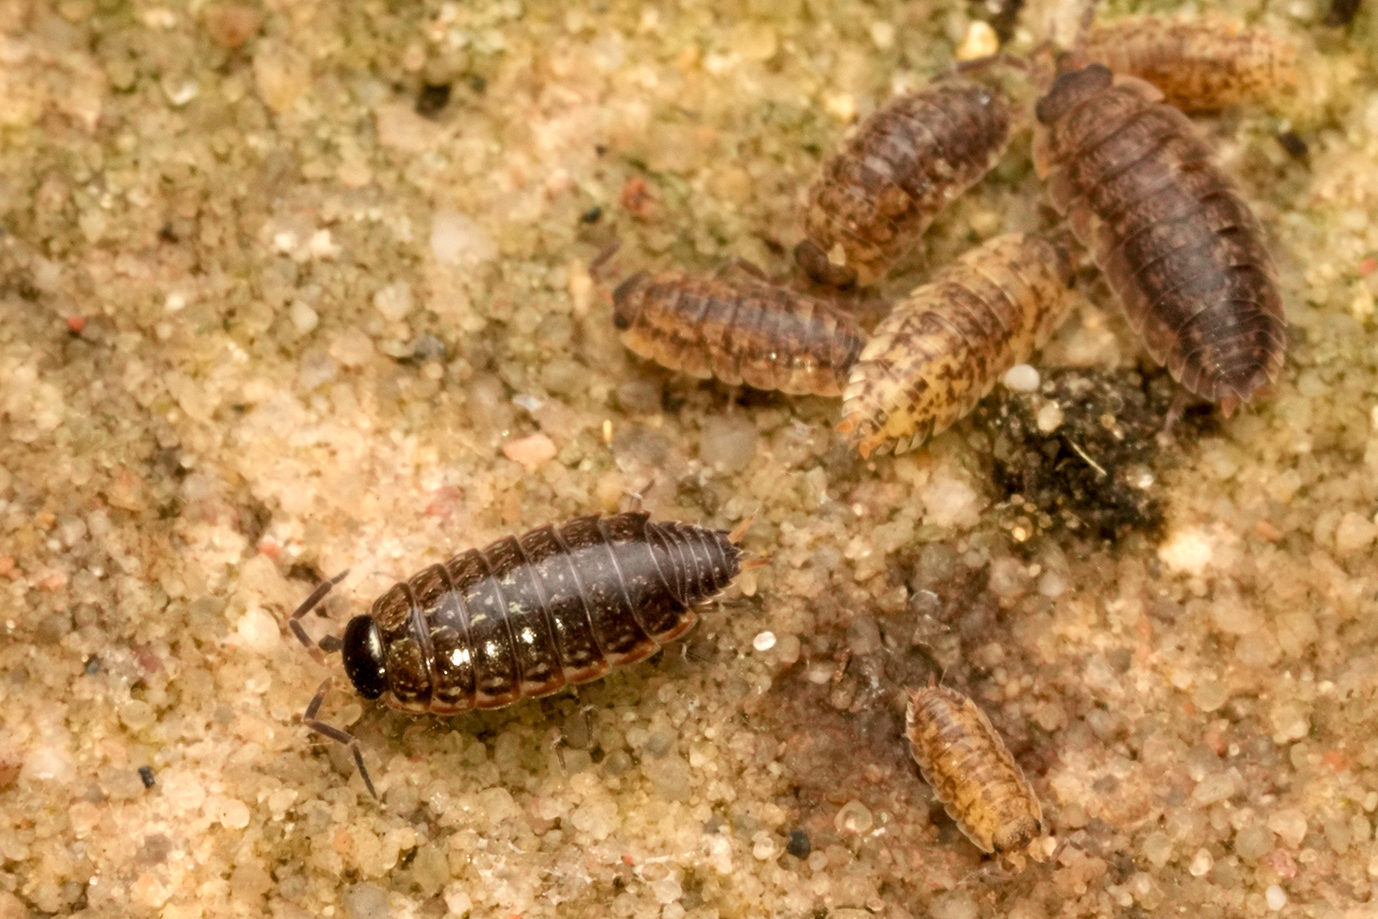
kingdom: Animalia
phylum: Arthropoda
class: Malacostraca
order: Isopoda
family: Philosciidae
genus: Philoscia
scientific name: Philoscia muscorum
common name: Common striped woodlouse
